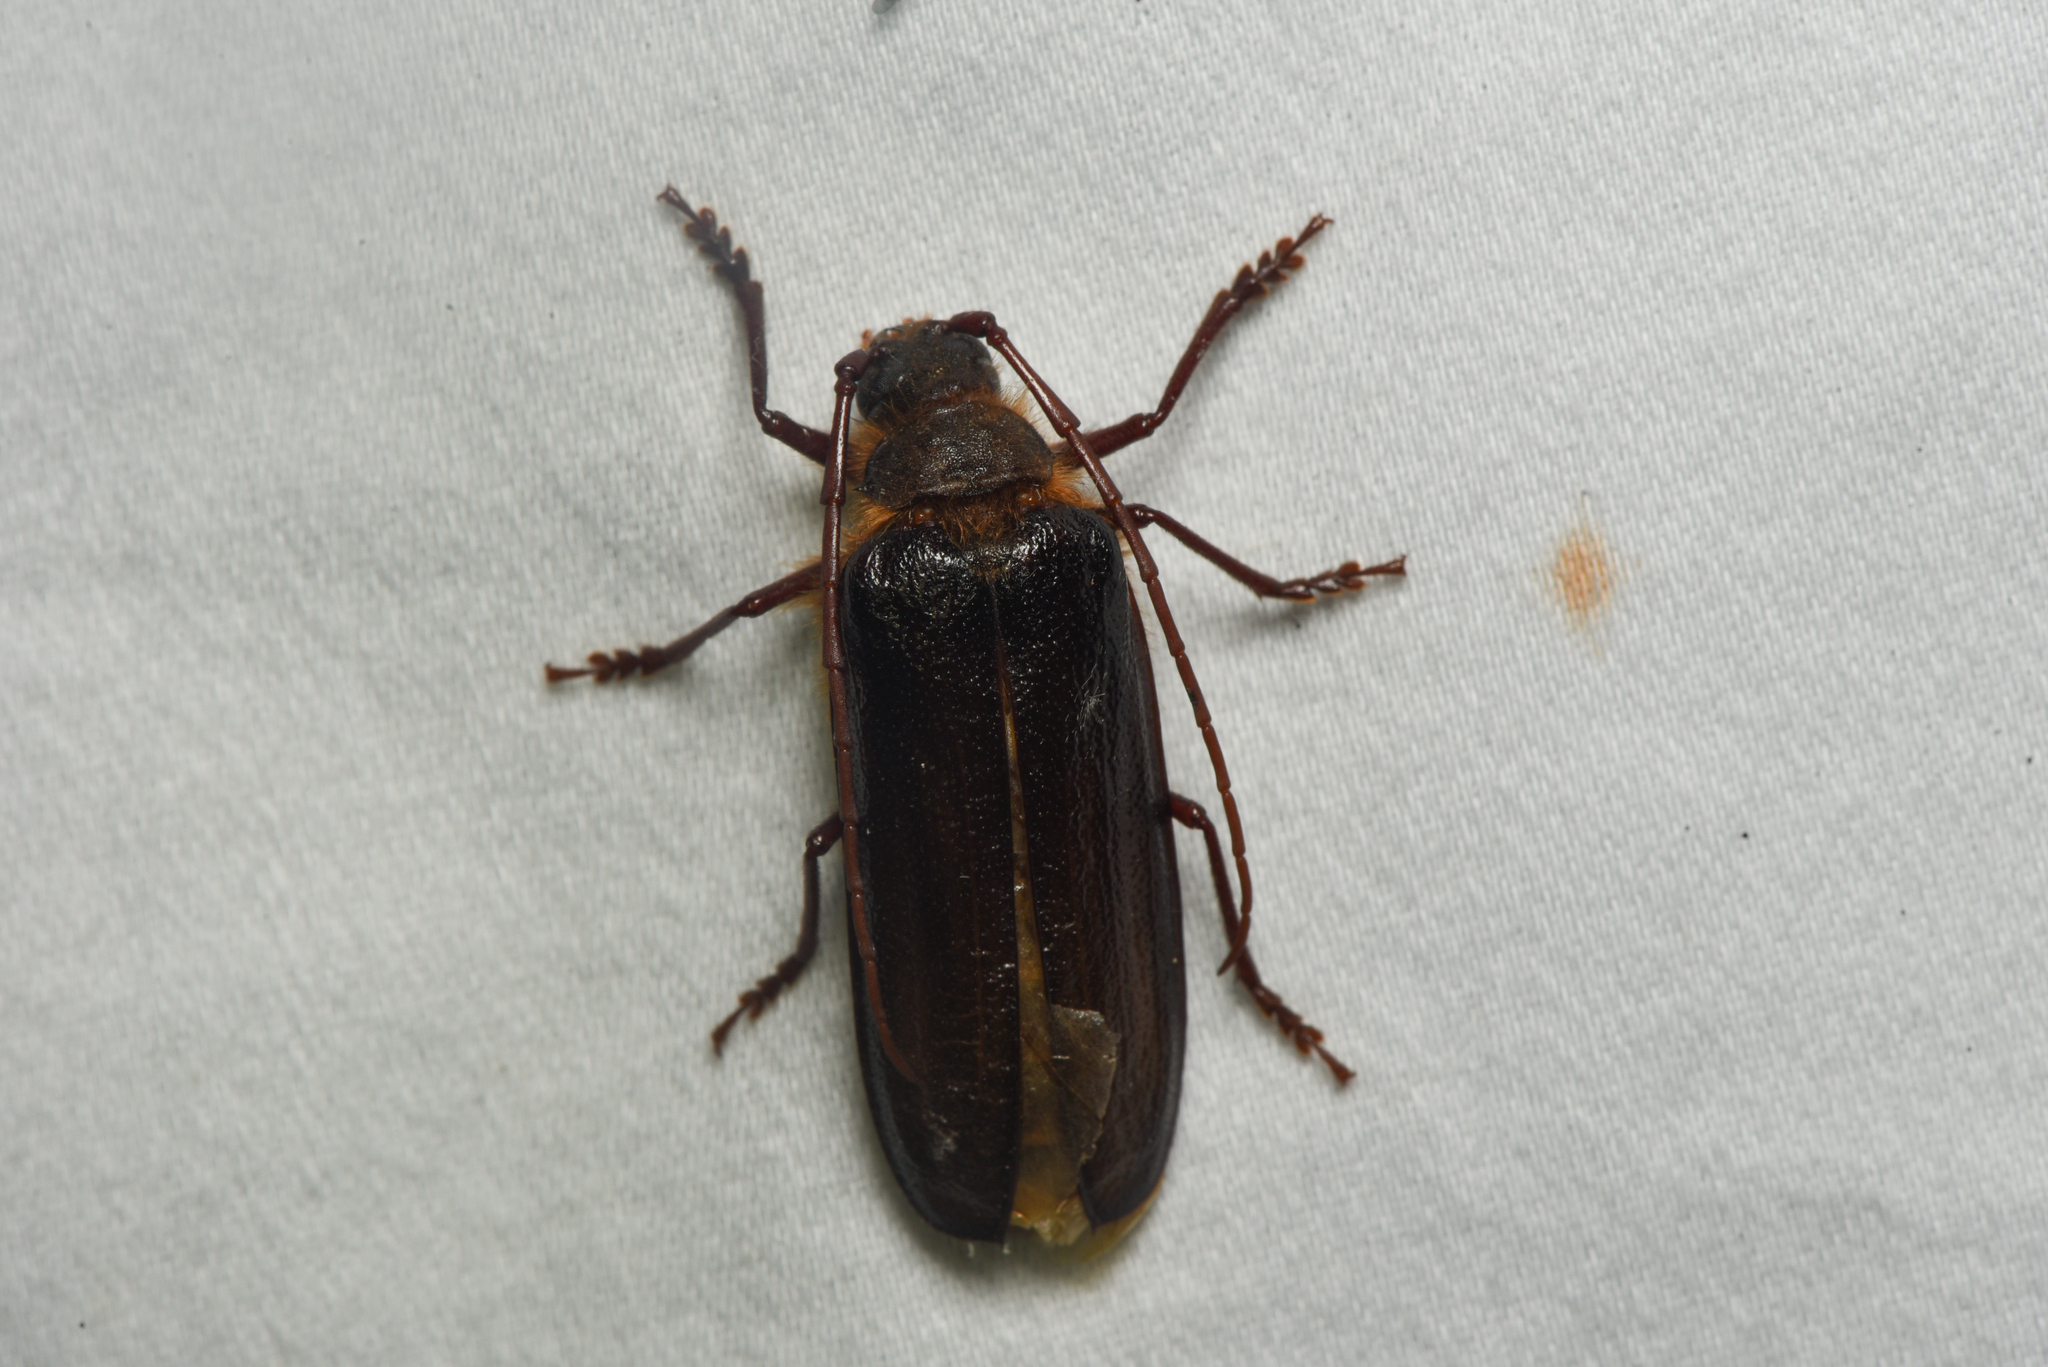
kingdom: Animalia
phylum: Arthropoda
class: Insecta
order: Coleoptera
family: Cerambycidae
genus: Tragosoma
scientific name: Tragosoma harrisii
